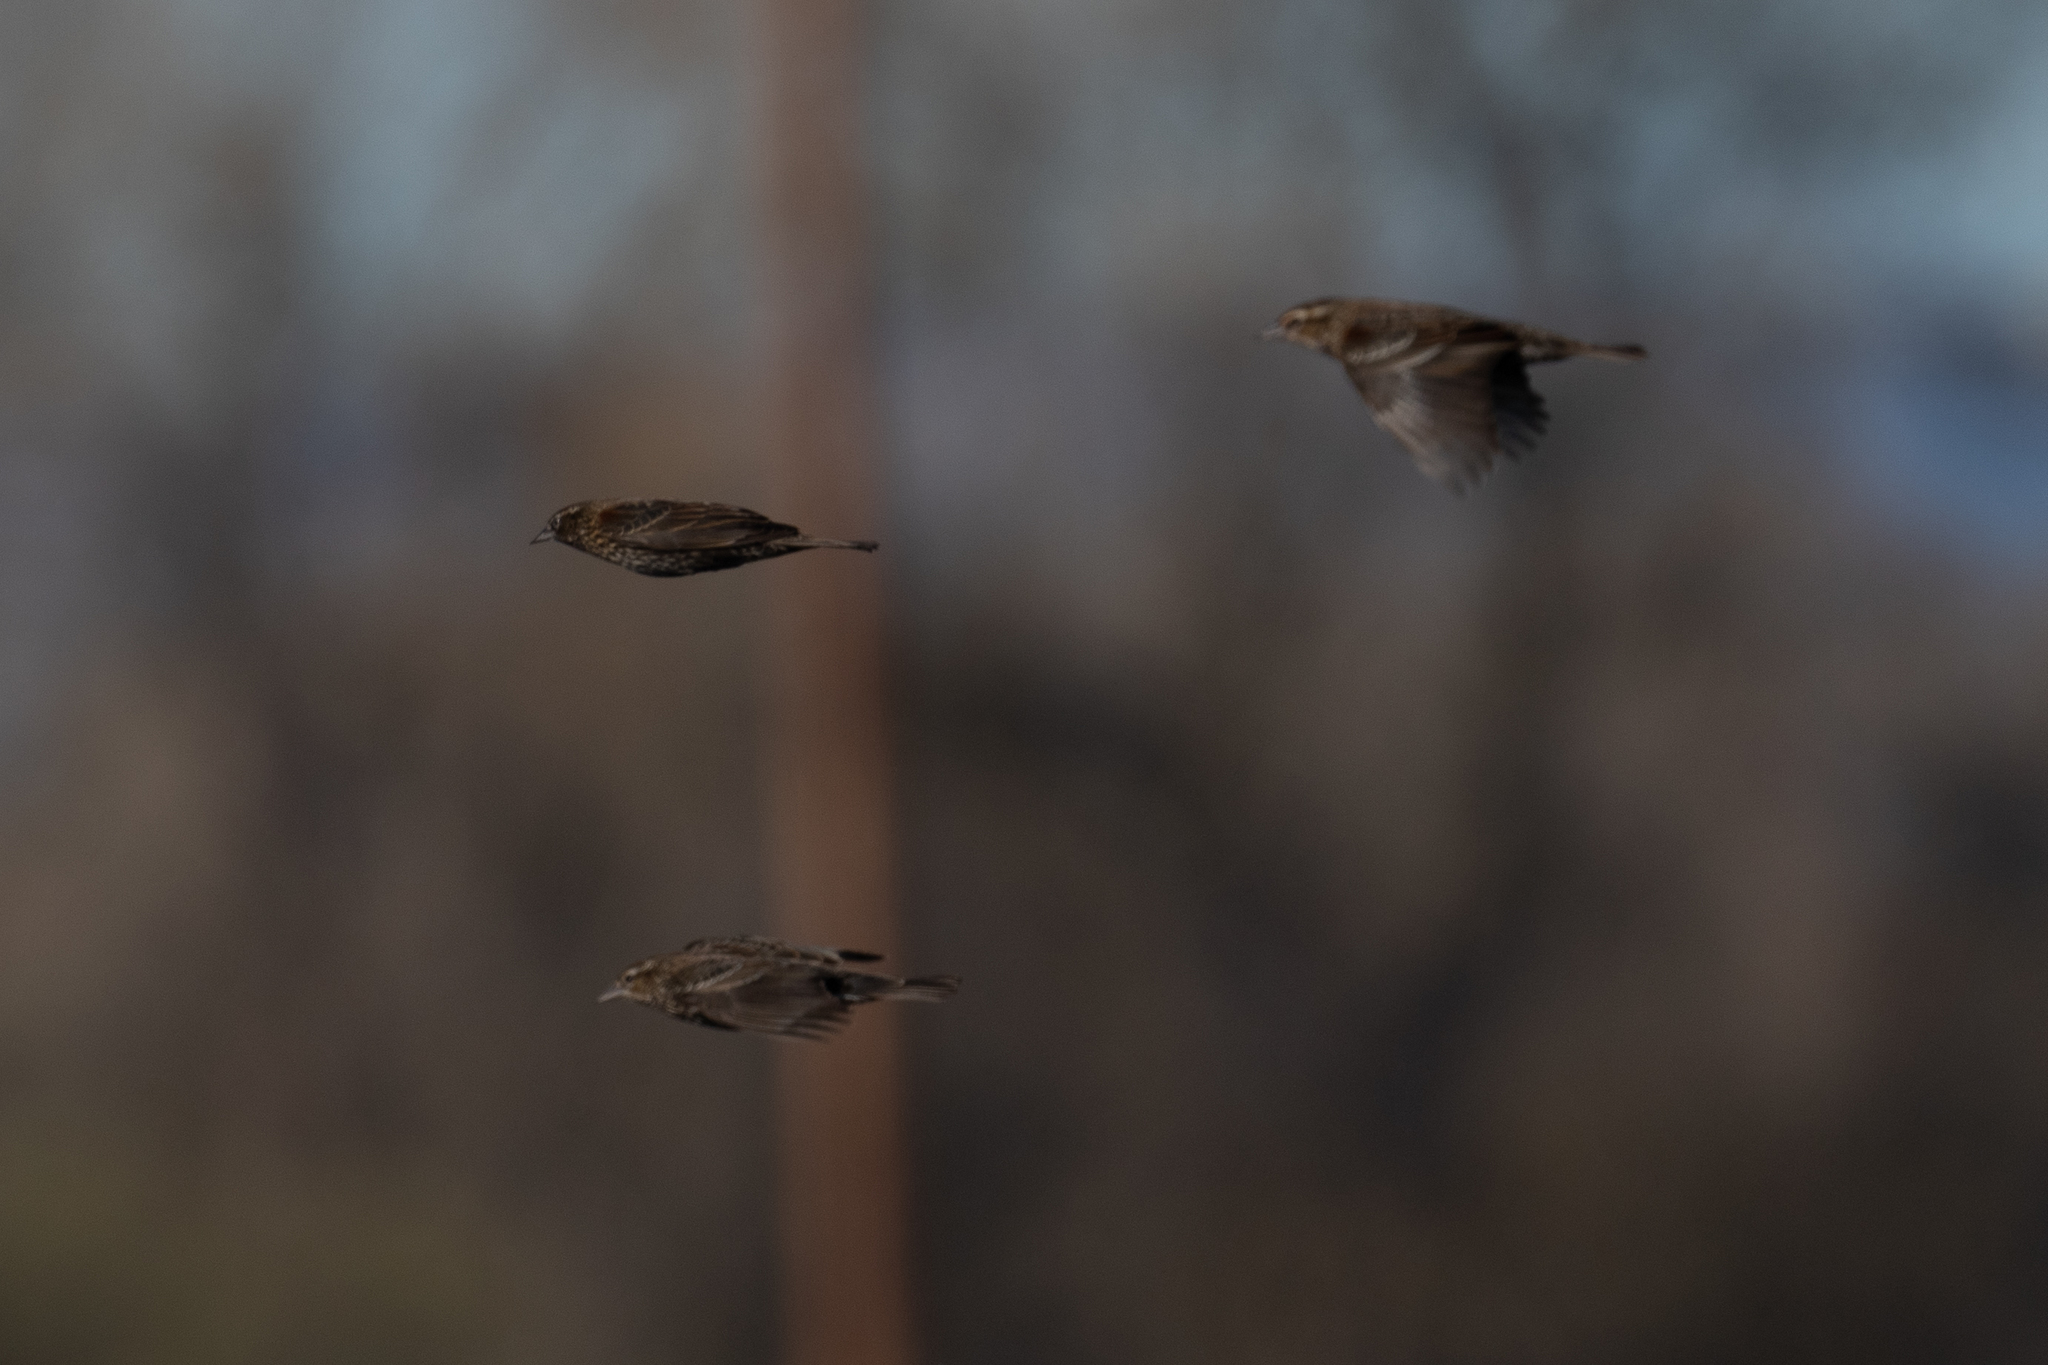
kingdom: Animalia
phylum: Chordata
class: Aves
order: Passeriformes
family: Icteridae
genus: Agelaius
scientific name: Agelaius phoeniceus
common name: Red-winged blackbird
